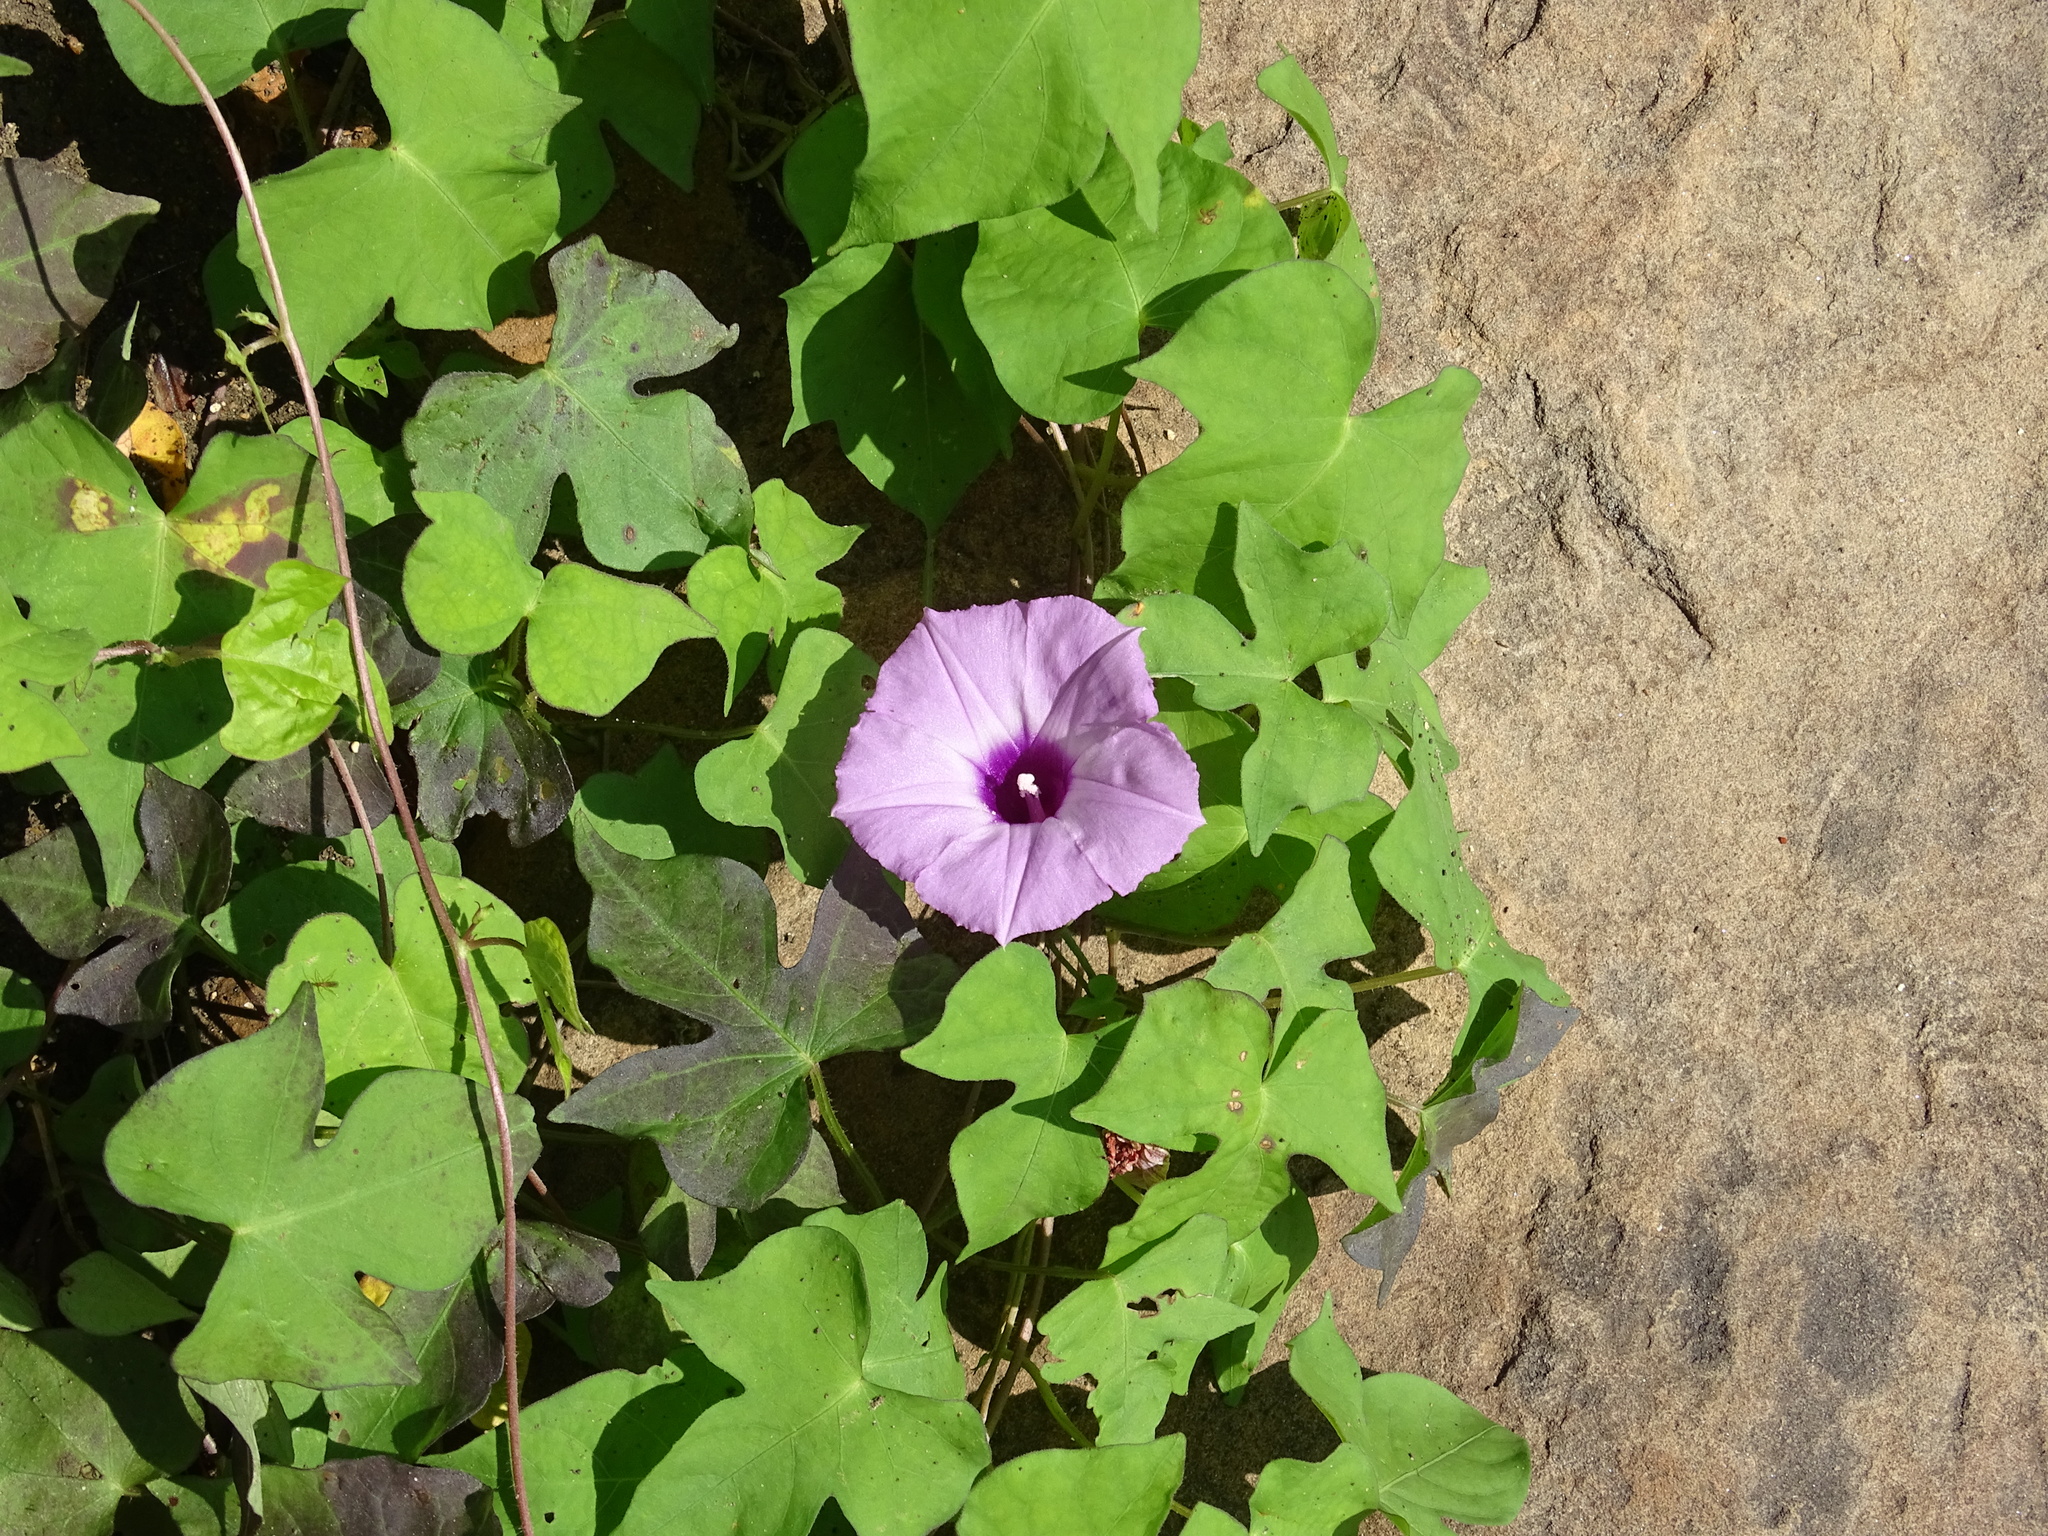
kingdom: Plantae
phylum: Tracheophyta
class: Magnoliopsida
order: Solanales
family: Convolvulaceae
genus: Ipomoea
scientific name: Ipomoea cordatotriloba
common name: Cotton morning glory
